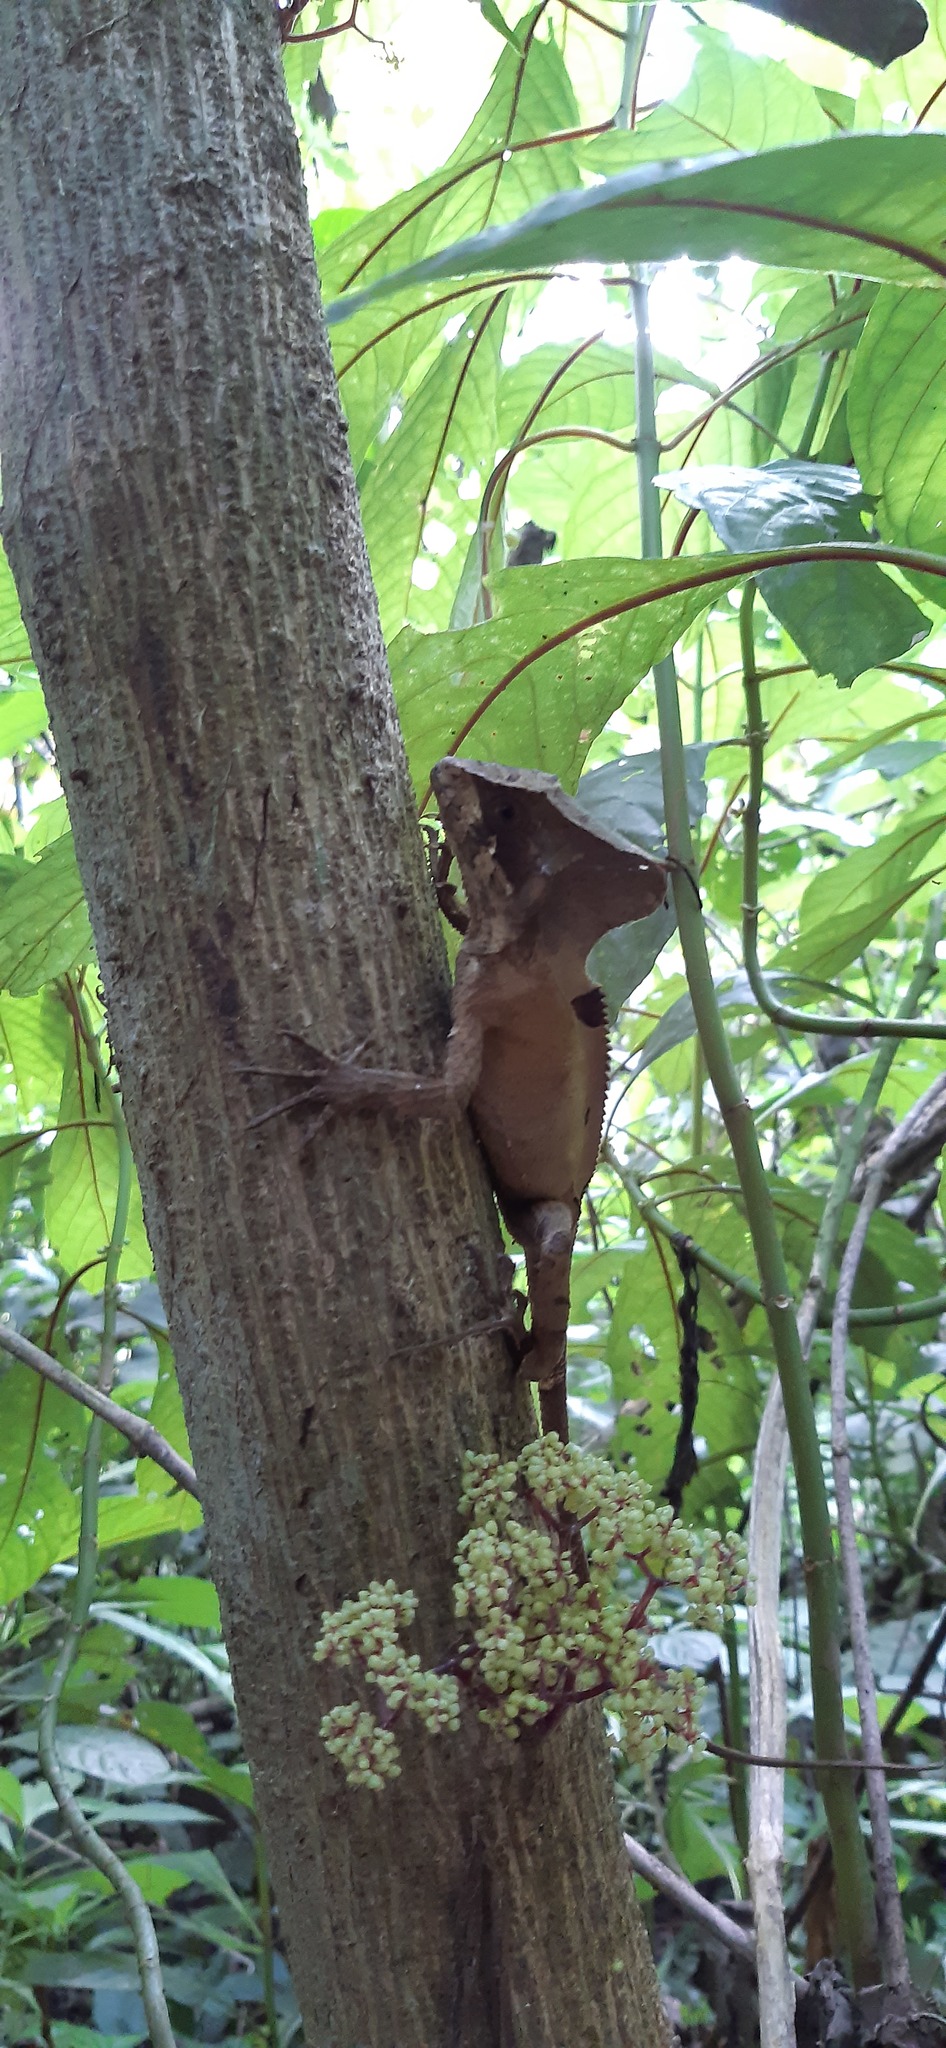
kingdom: Animalia
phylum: Chordata
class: Squamata
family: Corytophanidae
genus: Corytophanes
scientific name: Corytophanes hernandesii
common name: Hernandez’s helmeted basilisk
